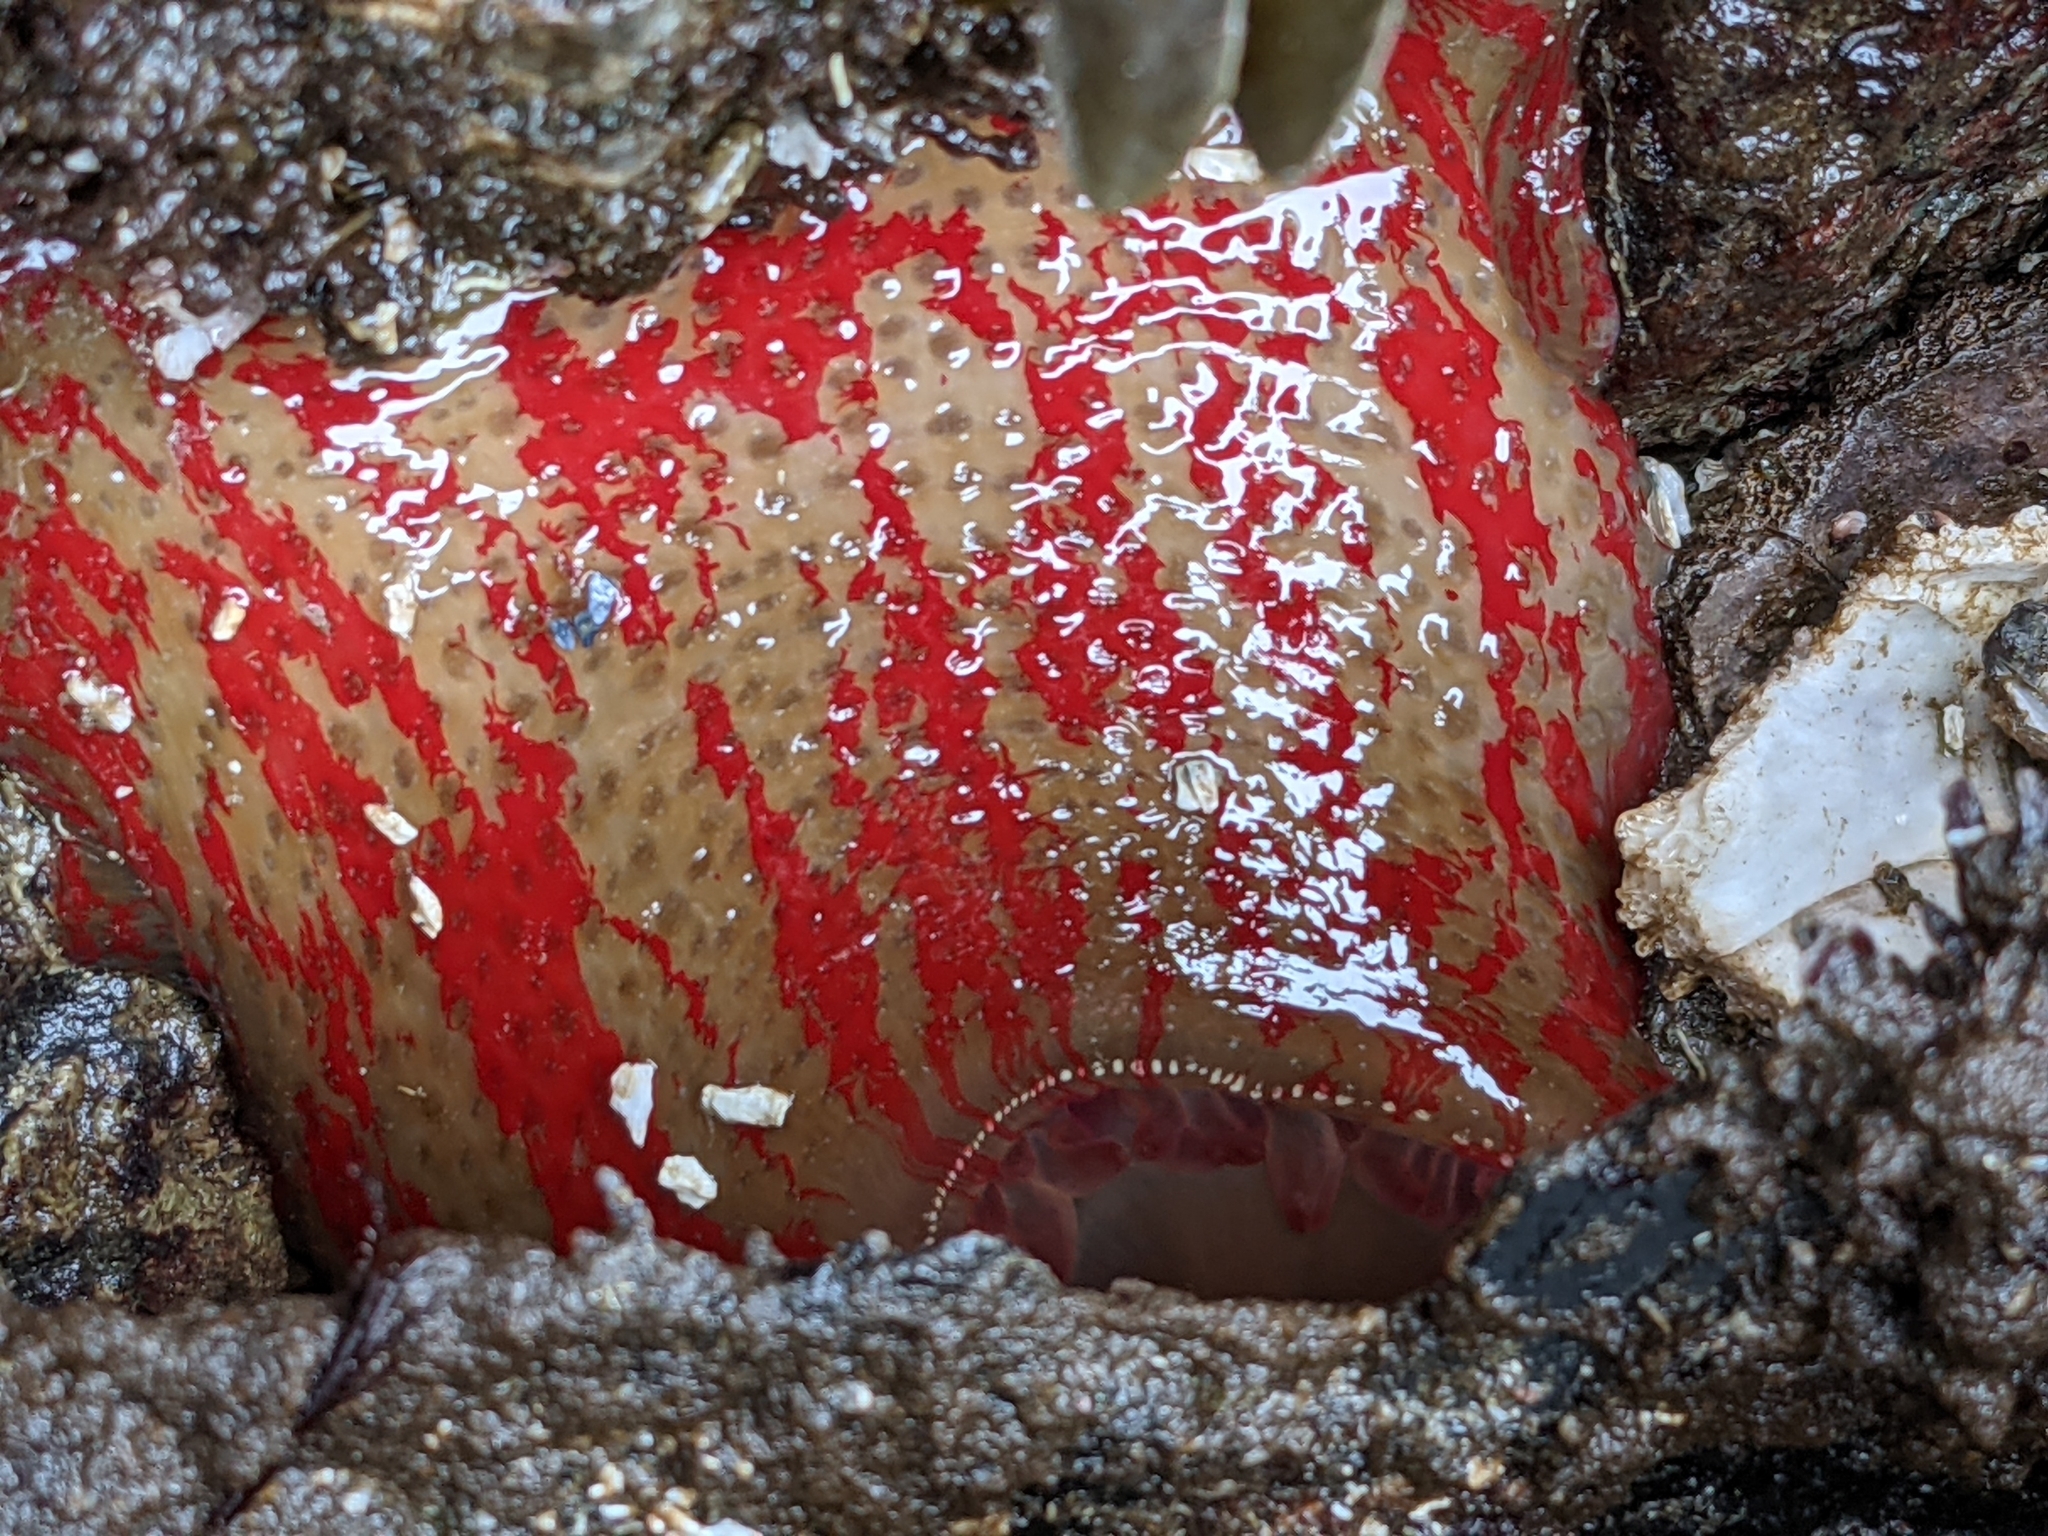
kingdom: Animalia
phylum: Cnidaria
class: Anthozoa
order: Actiniaria
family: Actiniidae
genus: Urticina
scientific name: Urticina grebelnyi
